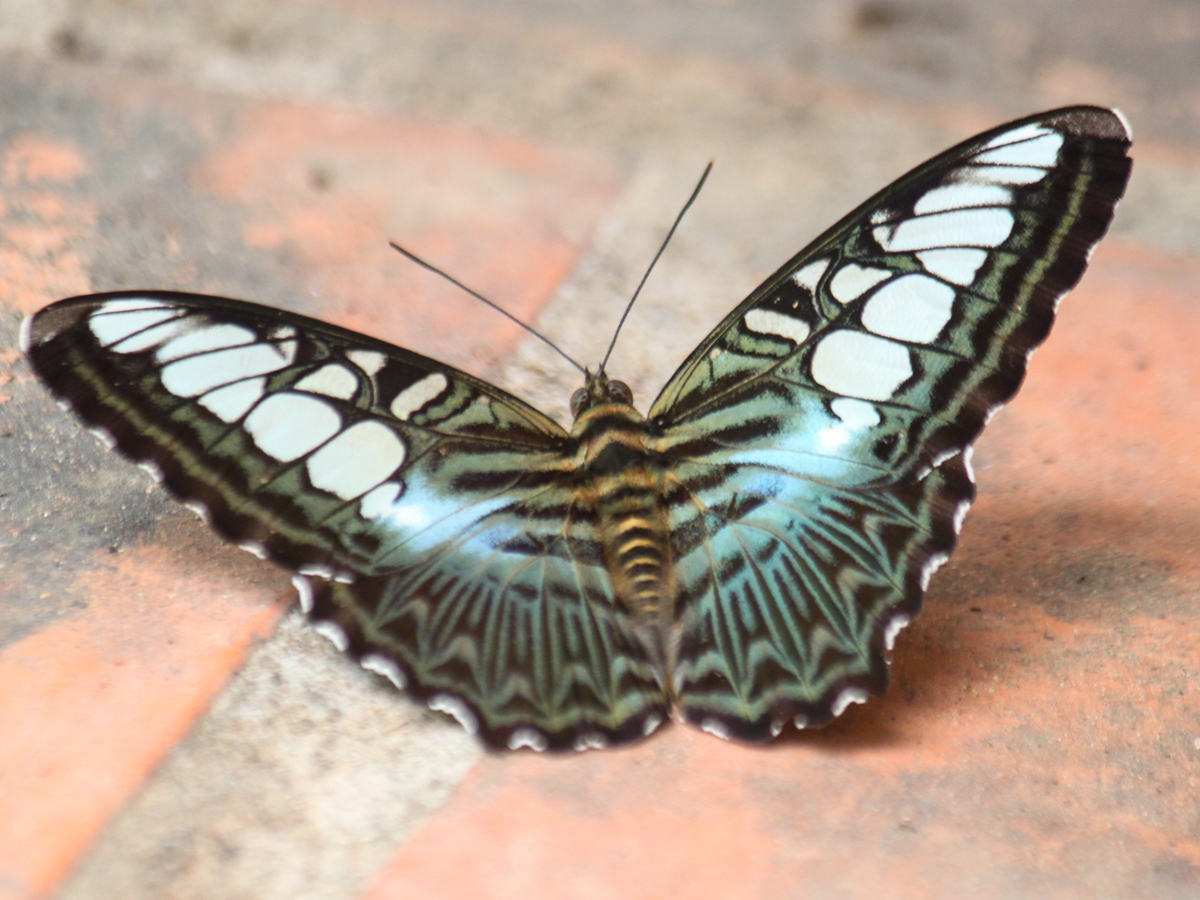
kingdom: Animalia
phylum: Arthropoda
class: Insecta
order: Lepidoptera
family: Nymphalidae
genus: Kallima
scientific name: Kallima sylvia
